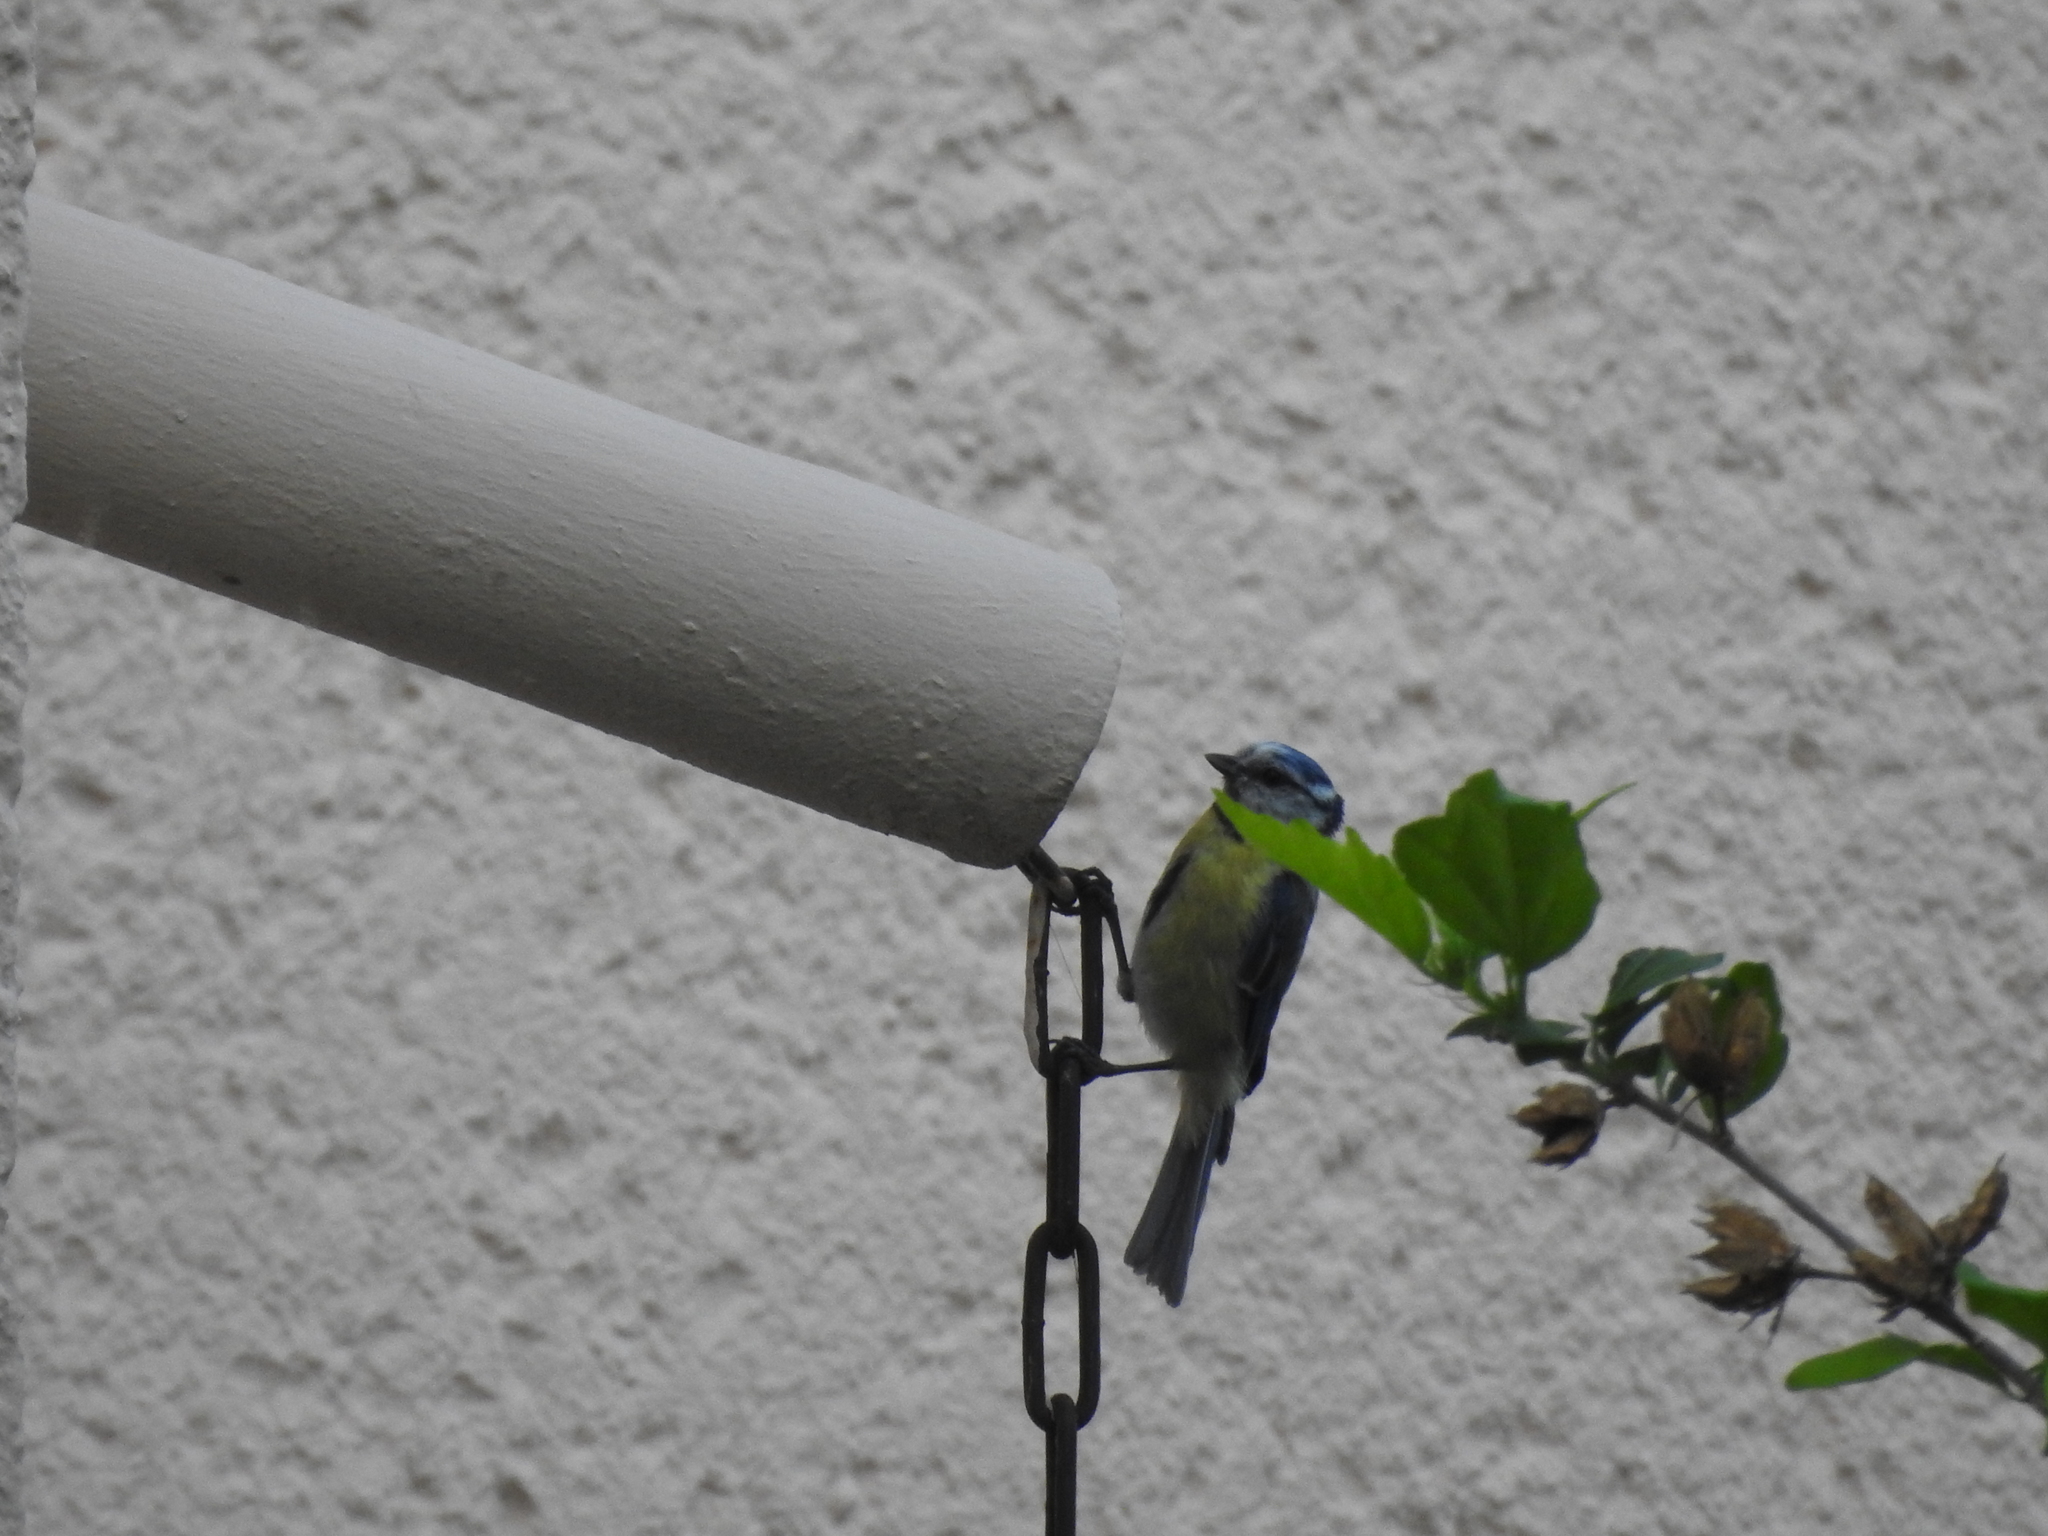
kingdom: Animalia
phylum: Chordata
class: Aves
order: Passeriformes
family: Paridae
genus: Cyanistes
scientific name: Cyanistes caeruleus
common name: Eurasian blue tit
